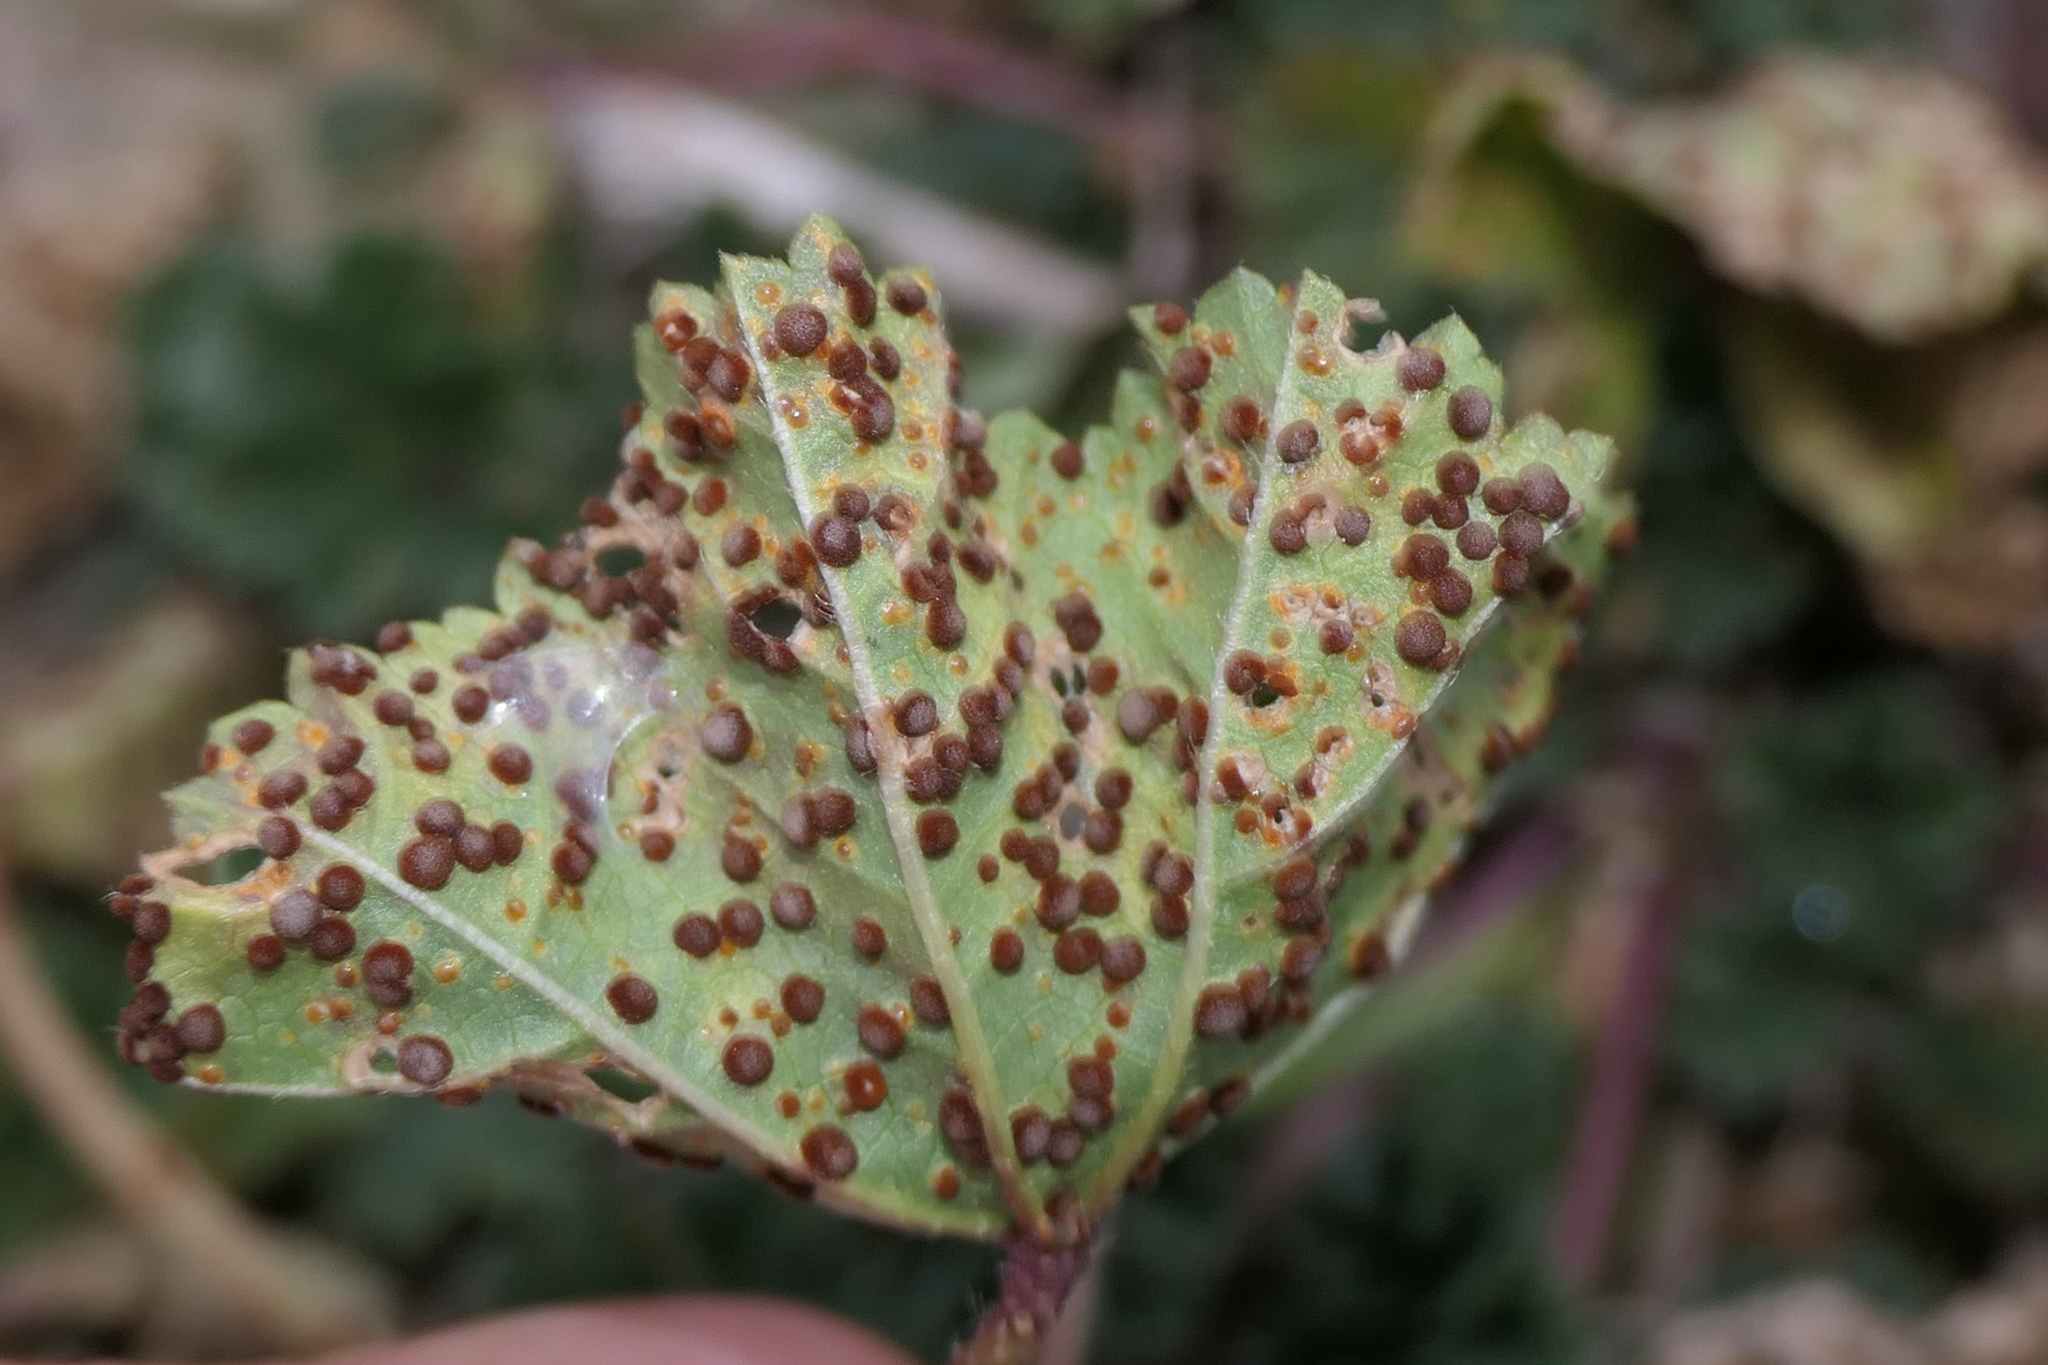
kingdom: Fungi
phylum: Basidiomycota
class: Pucciniomycetes
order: Pucciniales
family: Pucciniaceae
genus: Puccinia
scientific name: Puccinia malvacearum
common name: Hollyhock rust
